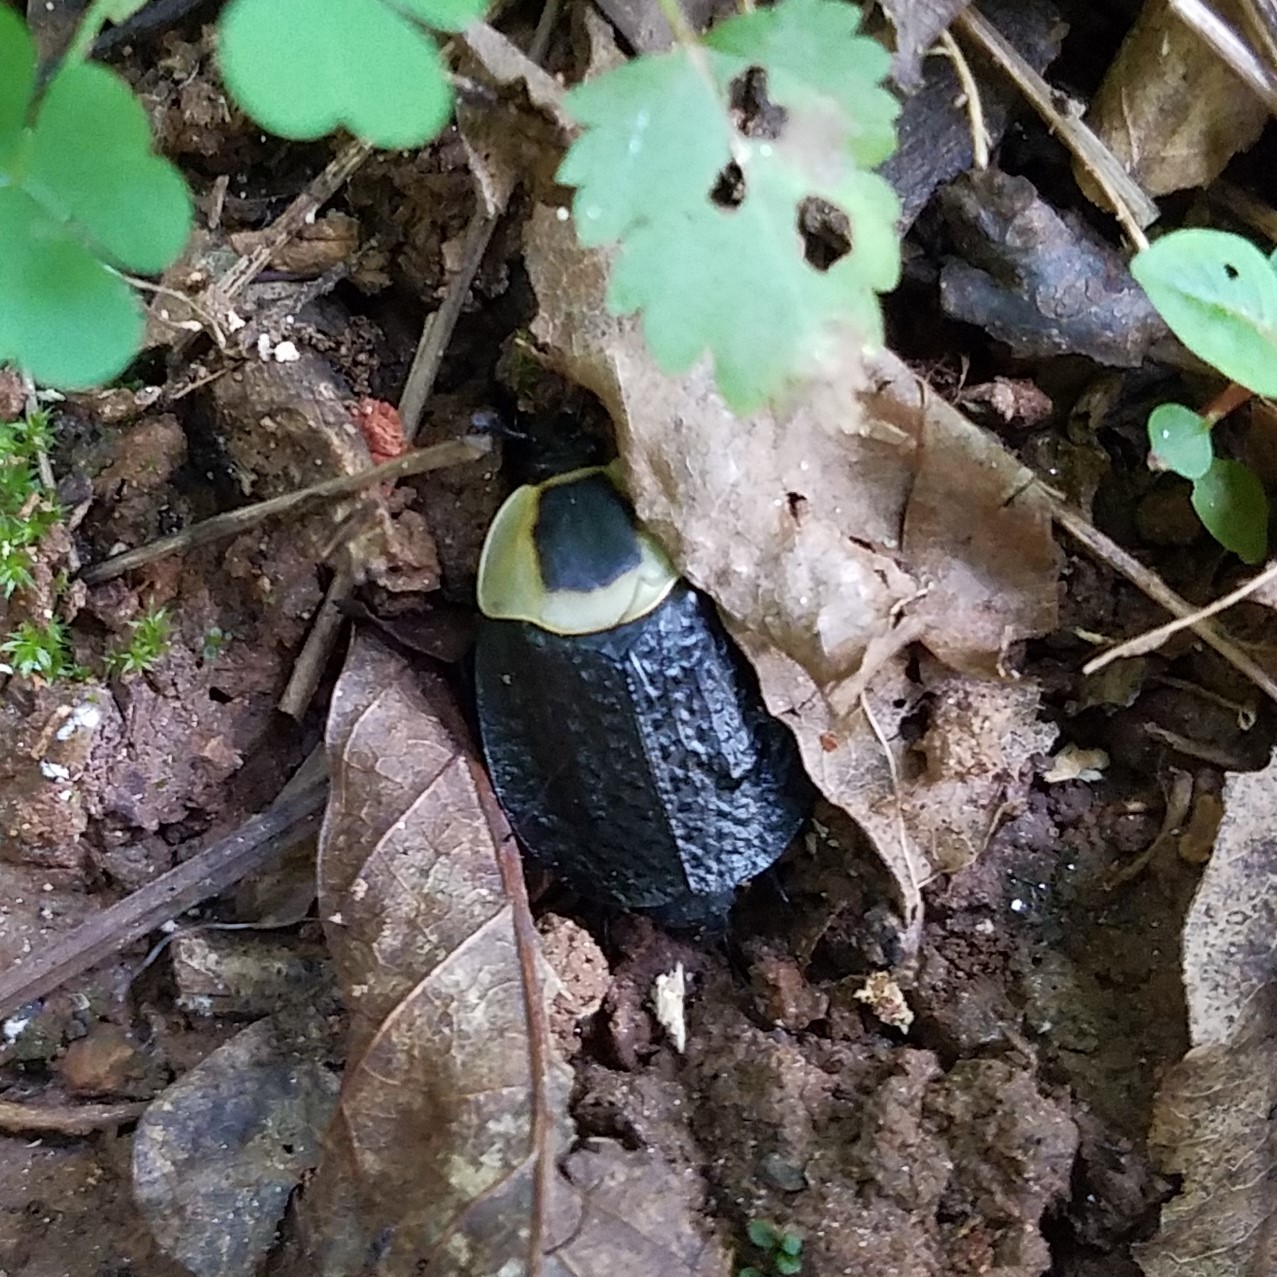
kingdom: Animalia
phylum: Arthropoda
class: Insecta
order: Coleoptera
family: Staphylinidae
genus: Necrophila
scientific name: Necrophila americana
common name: American carrion beetle
